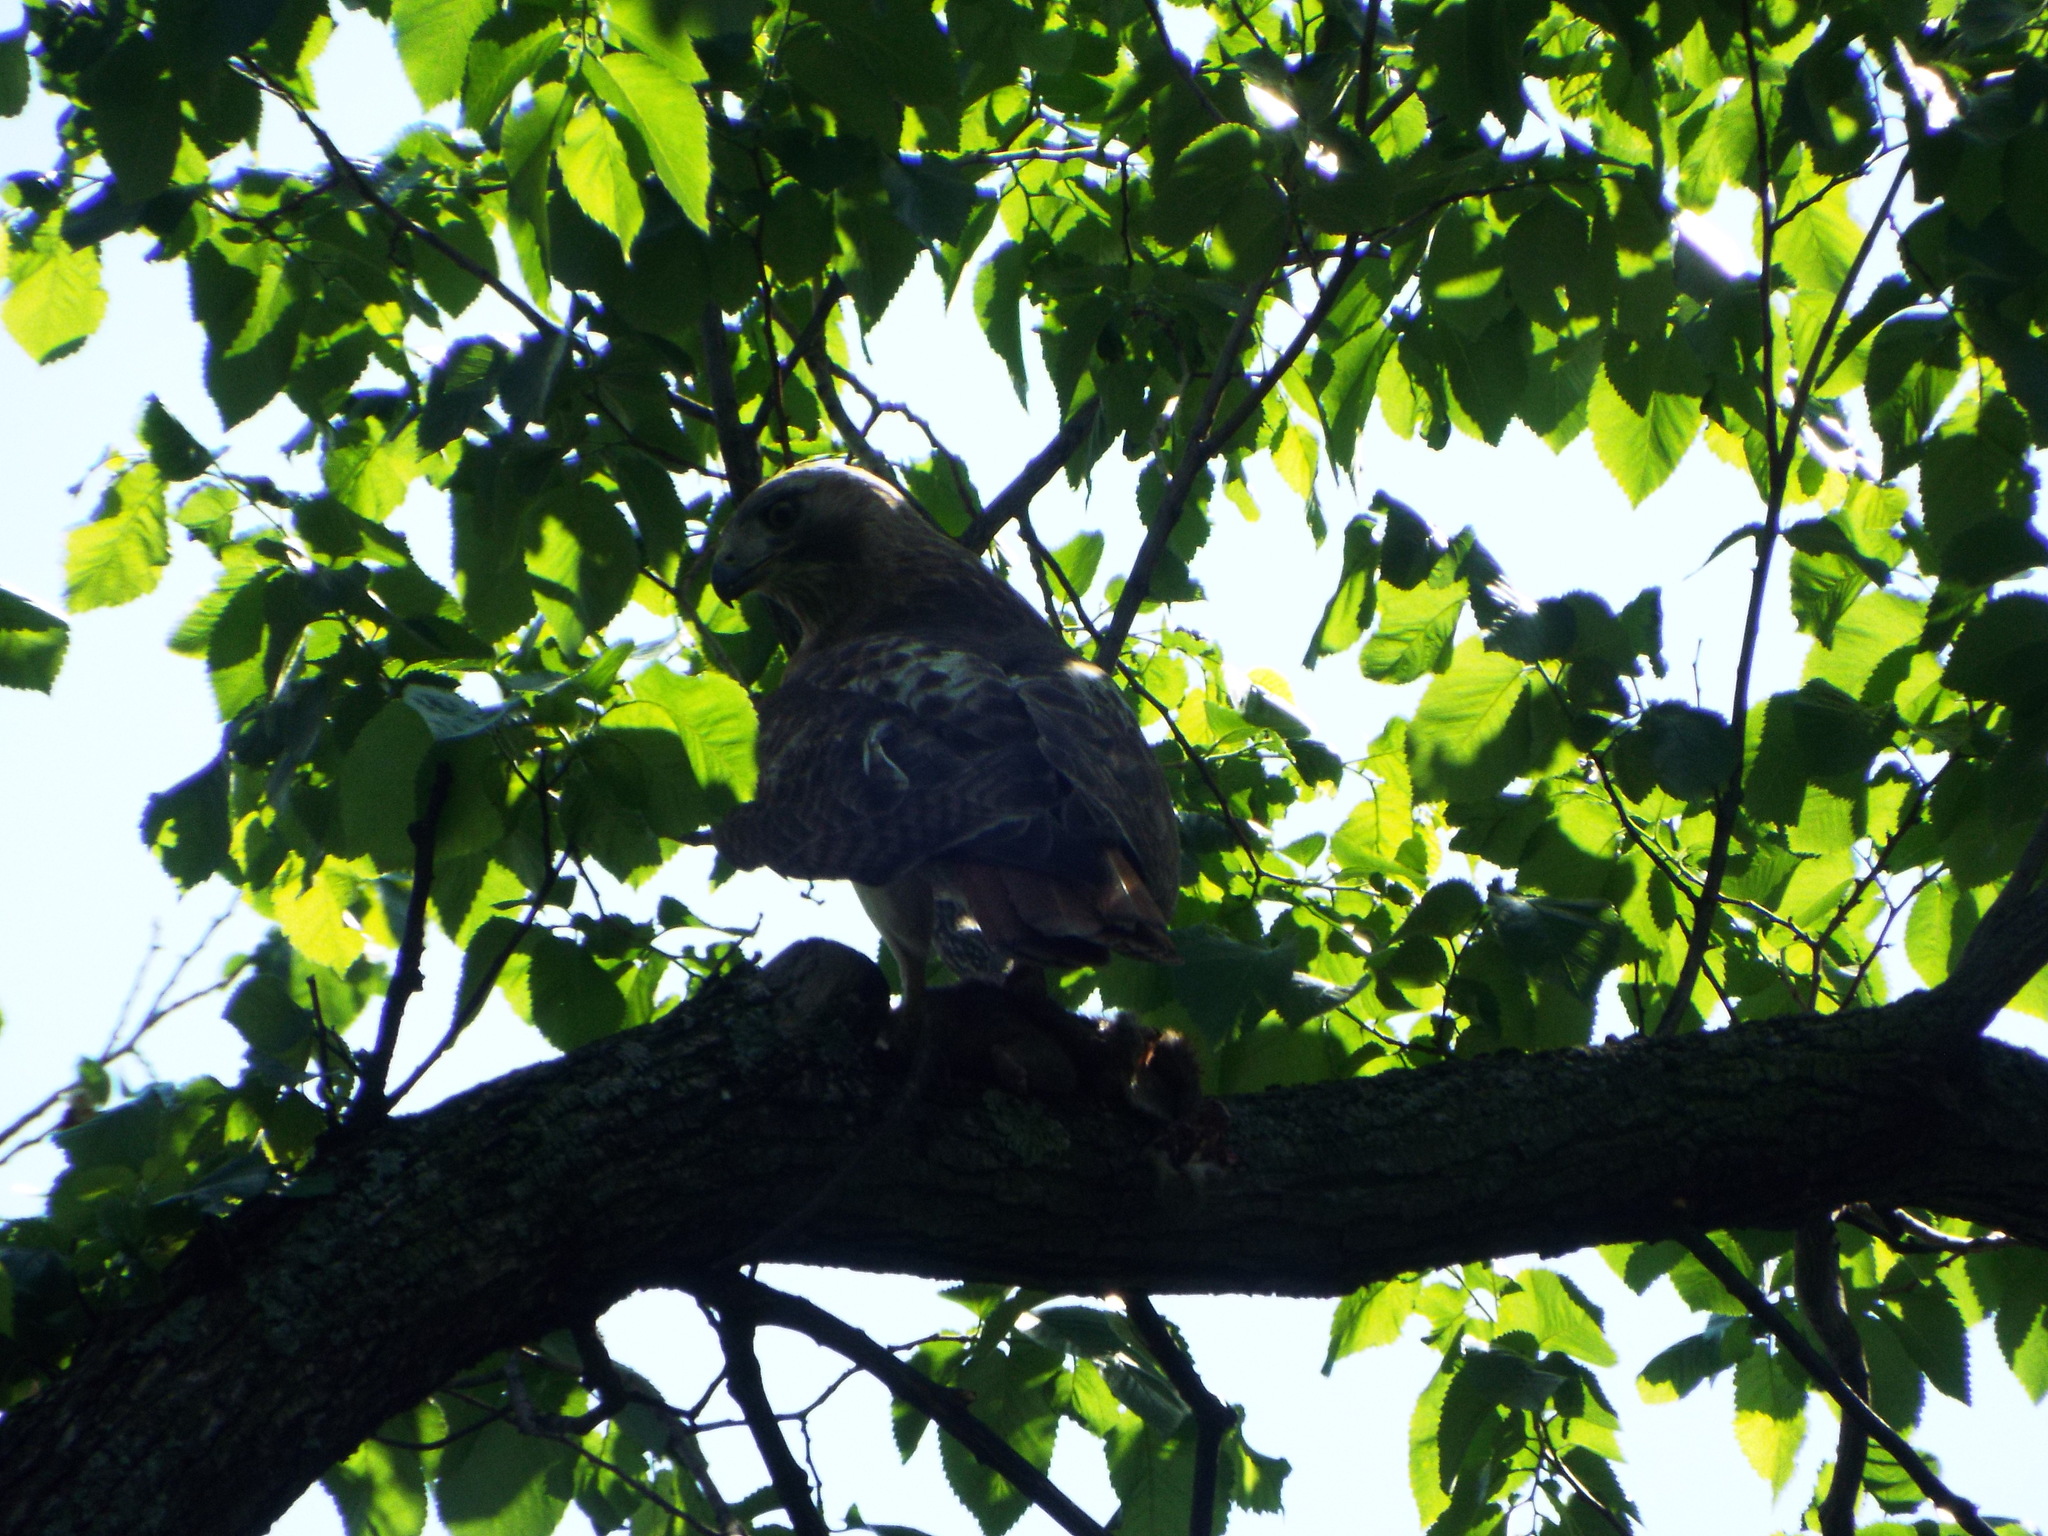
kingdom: Animalia
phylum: Chordata
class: Aves
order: Accipitriformes
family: Accipitridae
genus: Buteo
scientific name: Buteo jamaicensis
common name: Red-tailed hawk
